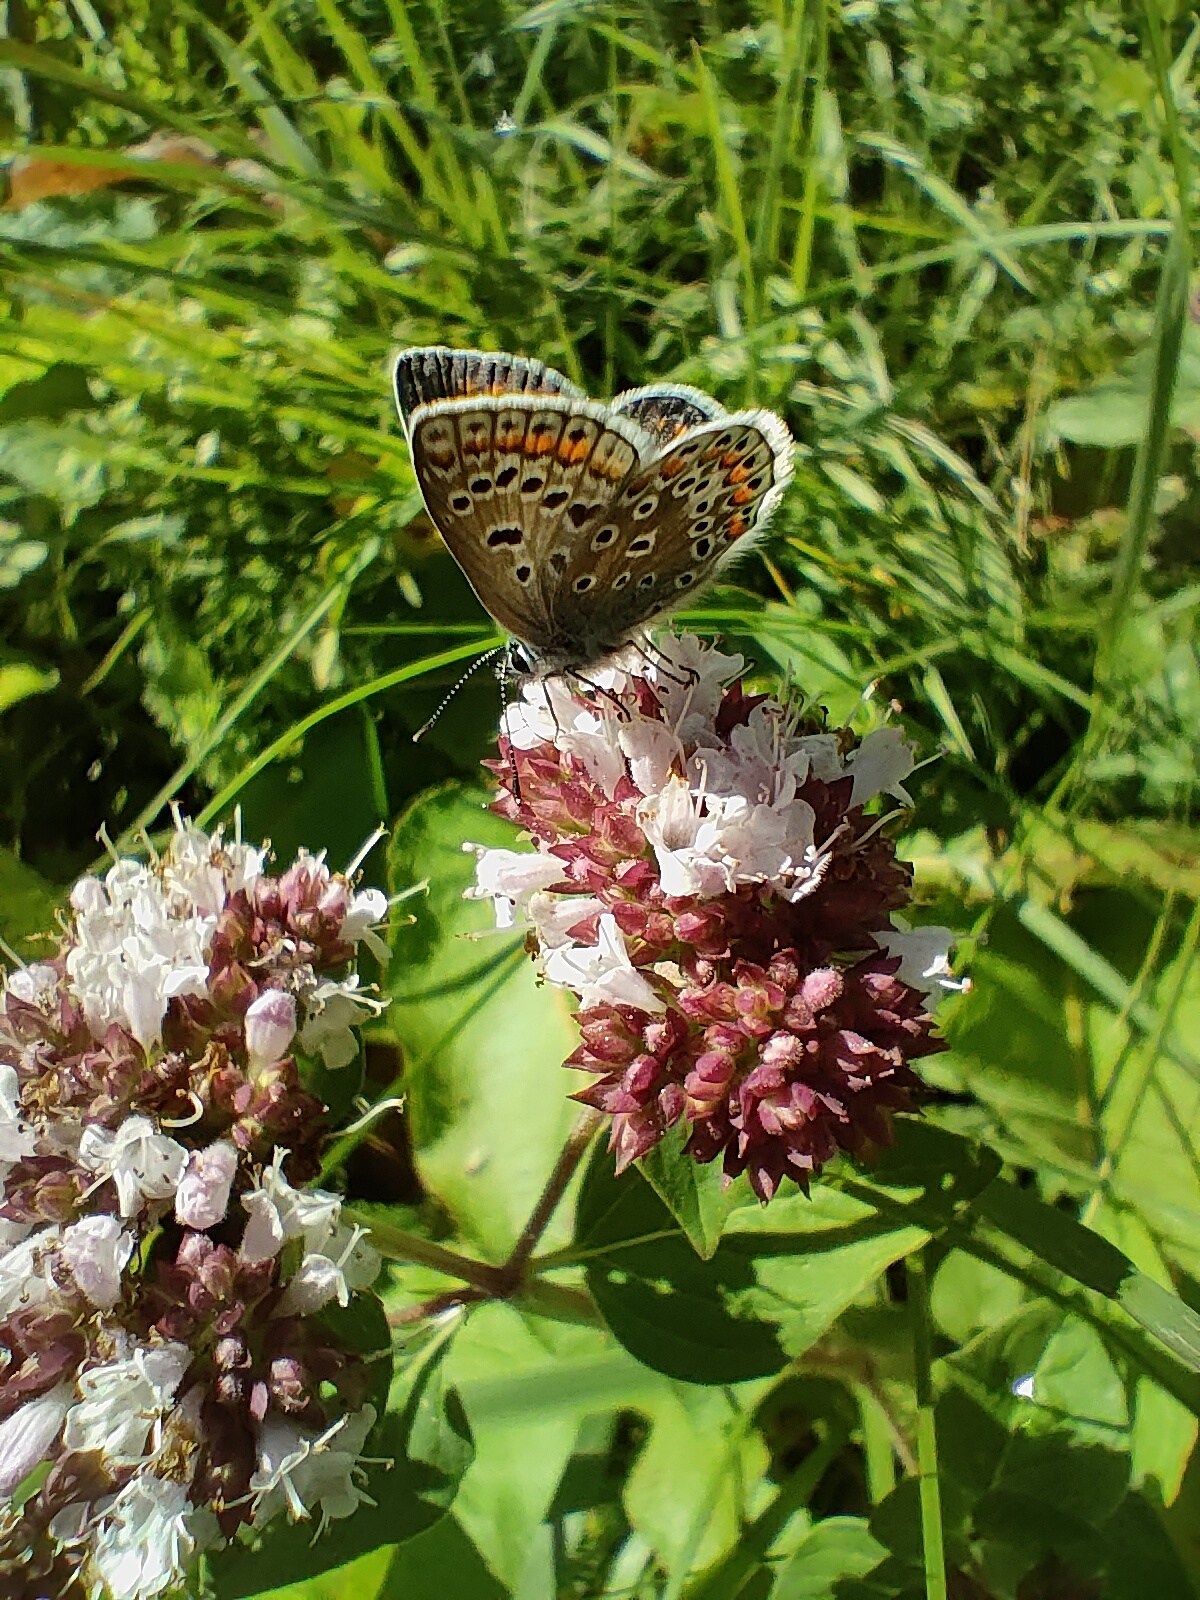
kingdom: Animalia
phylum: Arthropoda
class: Insecta
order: Lepidoptera
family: Lycaenidae
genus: Polyommatus
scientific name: Polyommatus icarus
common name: Common blue
